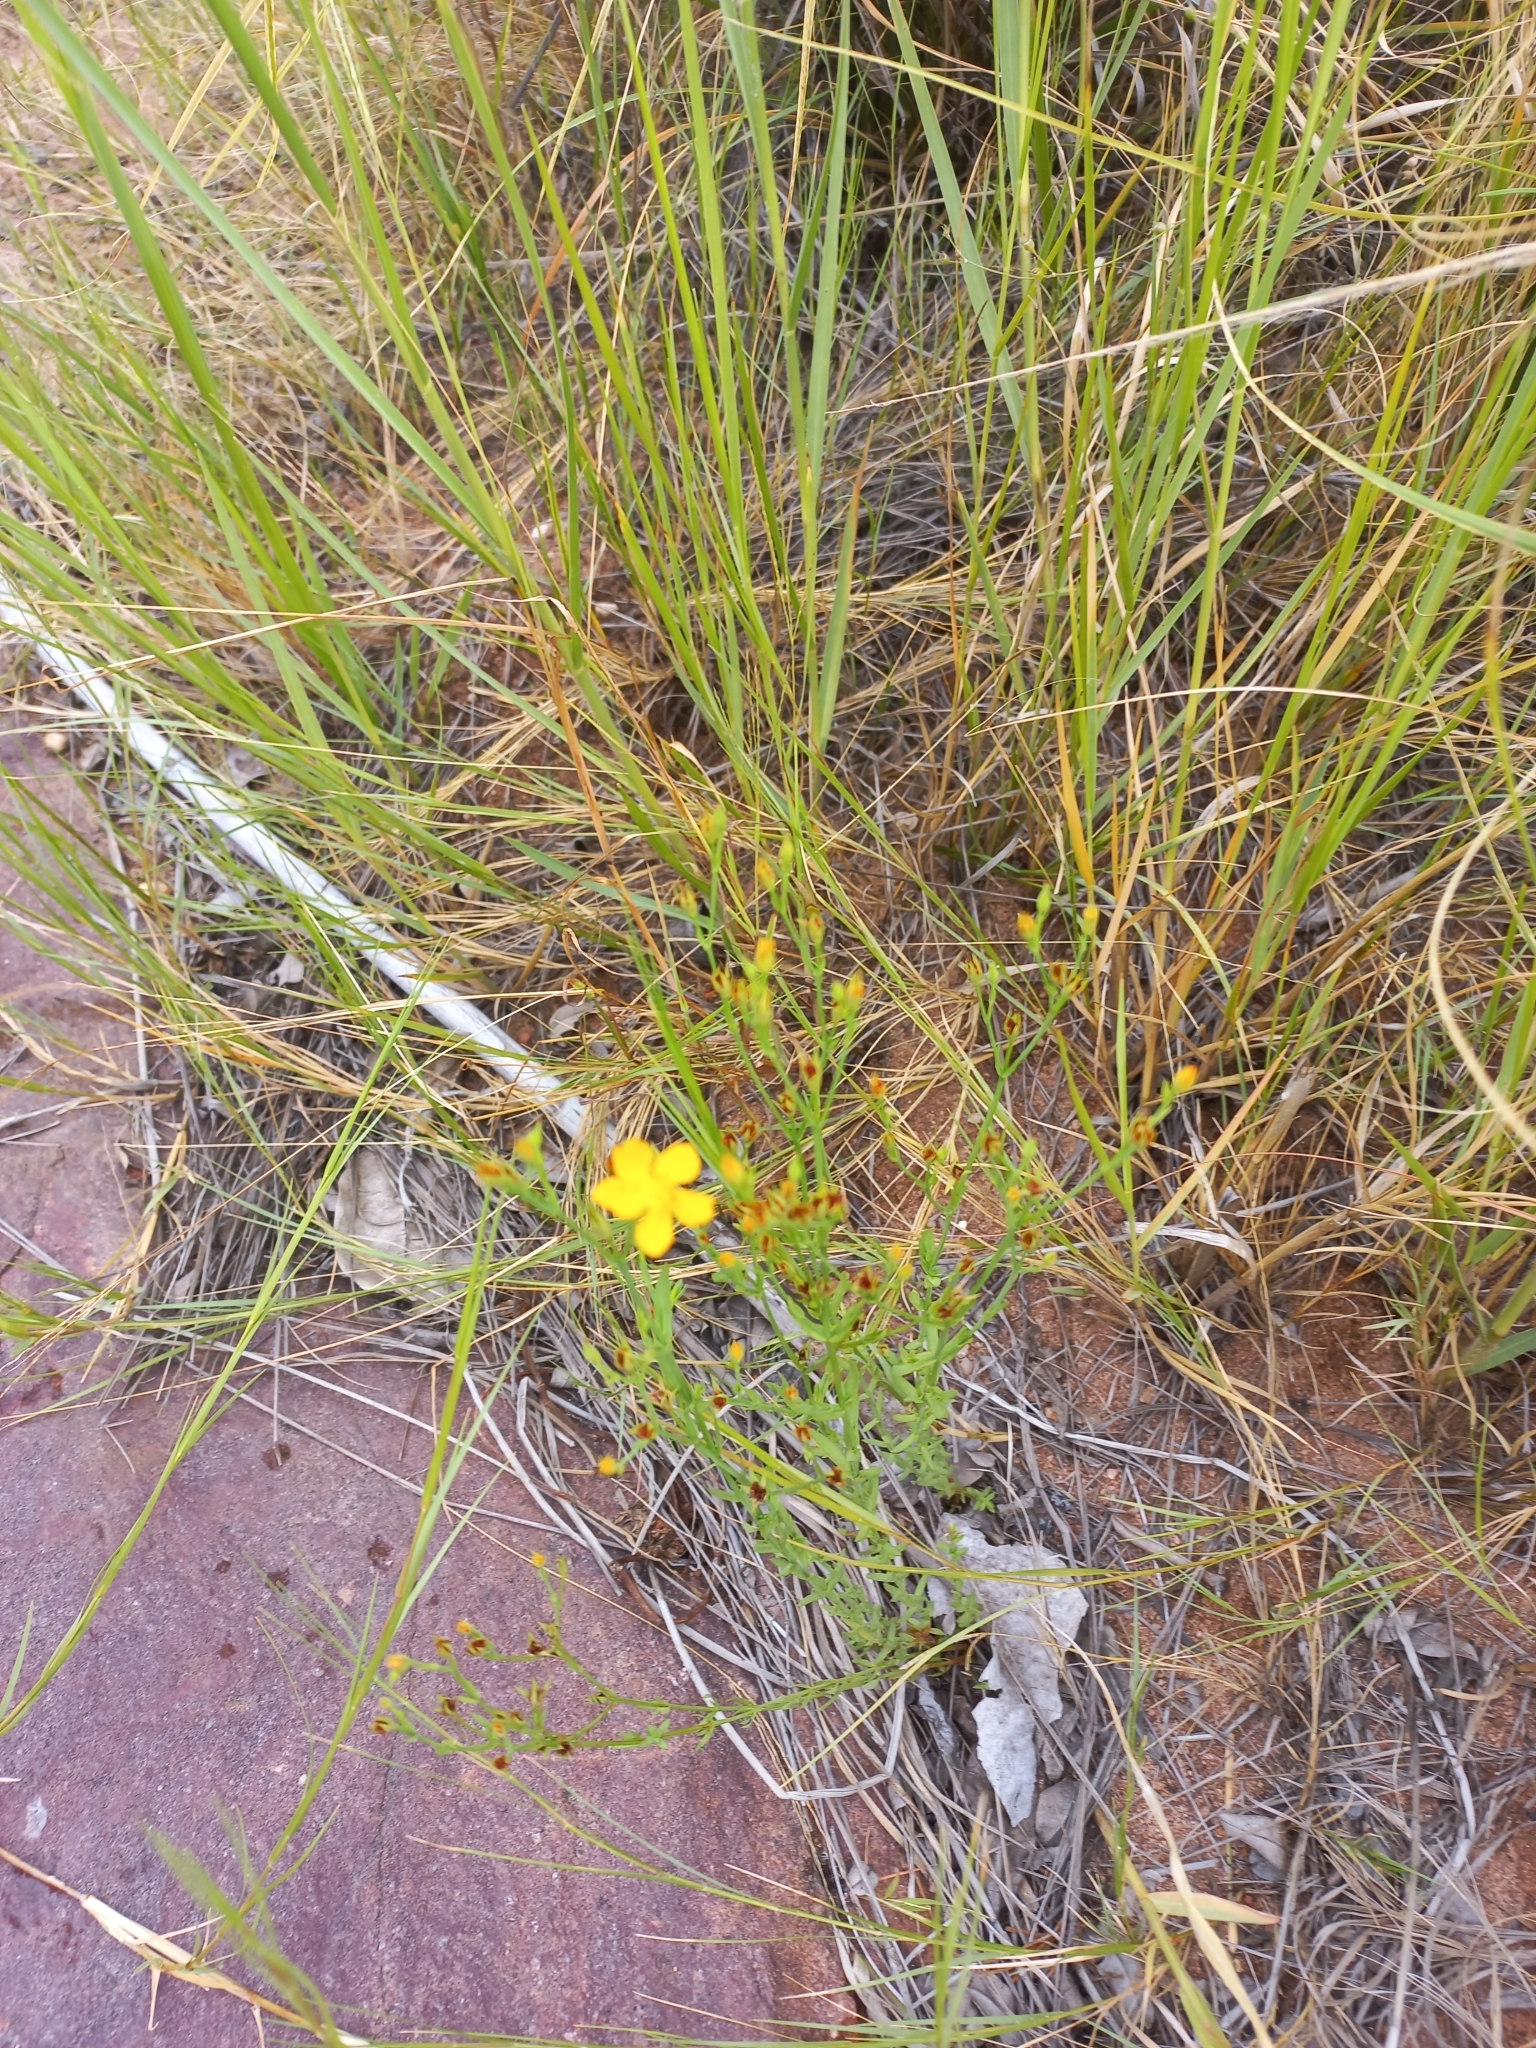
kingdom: Plantae
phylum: Tracheophyta
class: Magnoliopsida
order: Malpighiales
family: Hypericaceae
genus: Hypericum
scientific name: Hypericum lalandii
